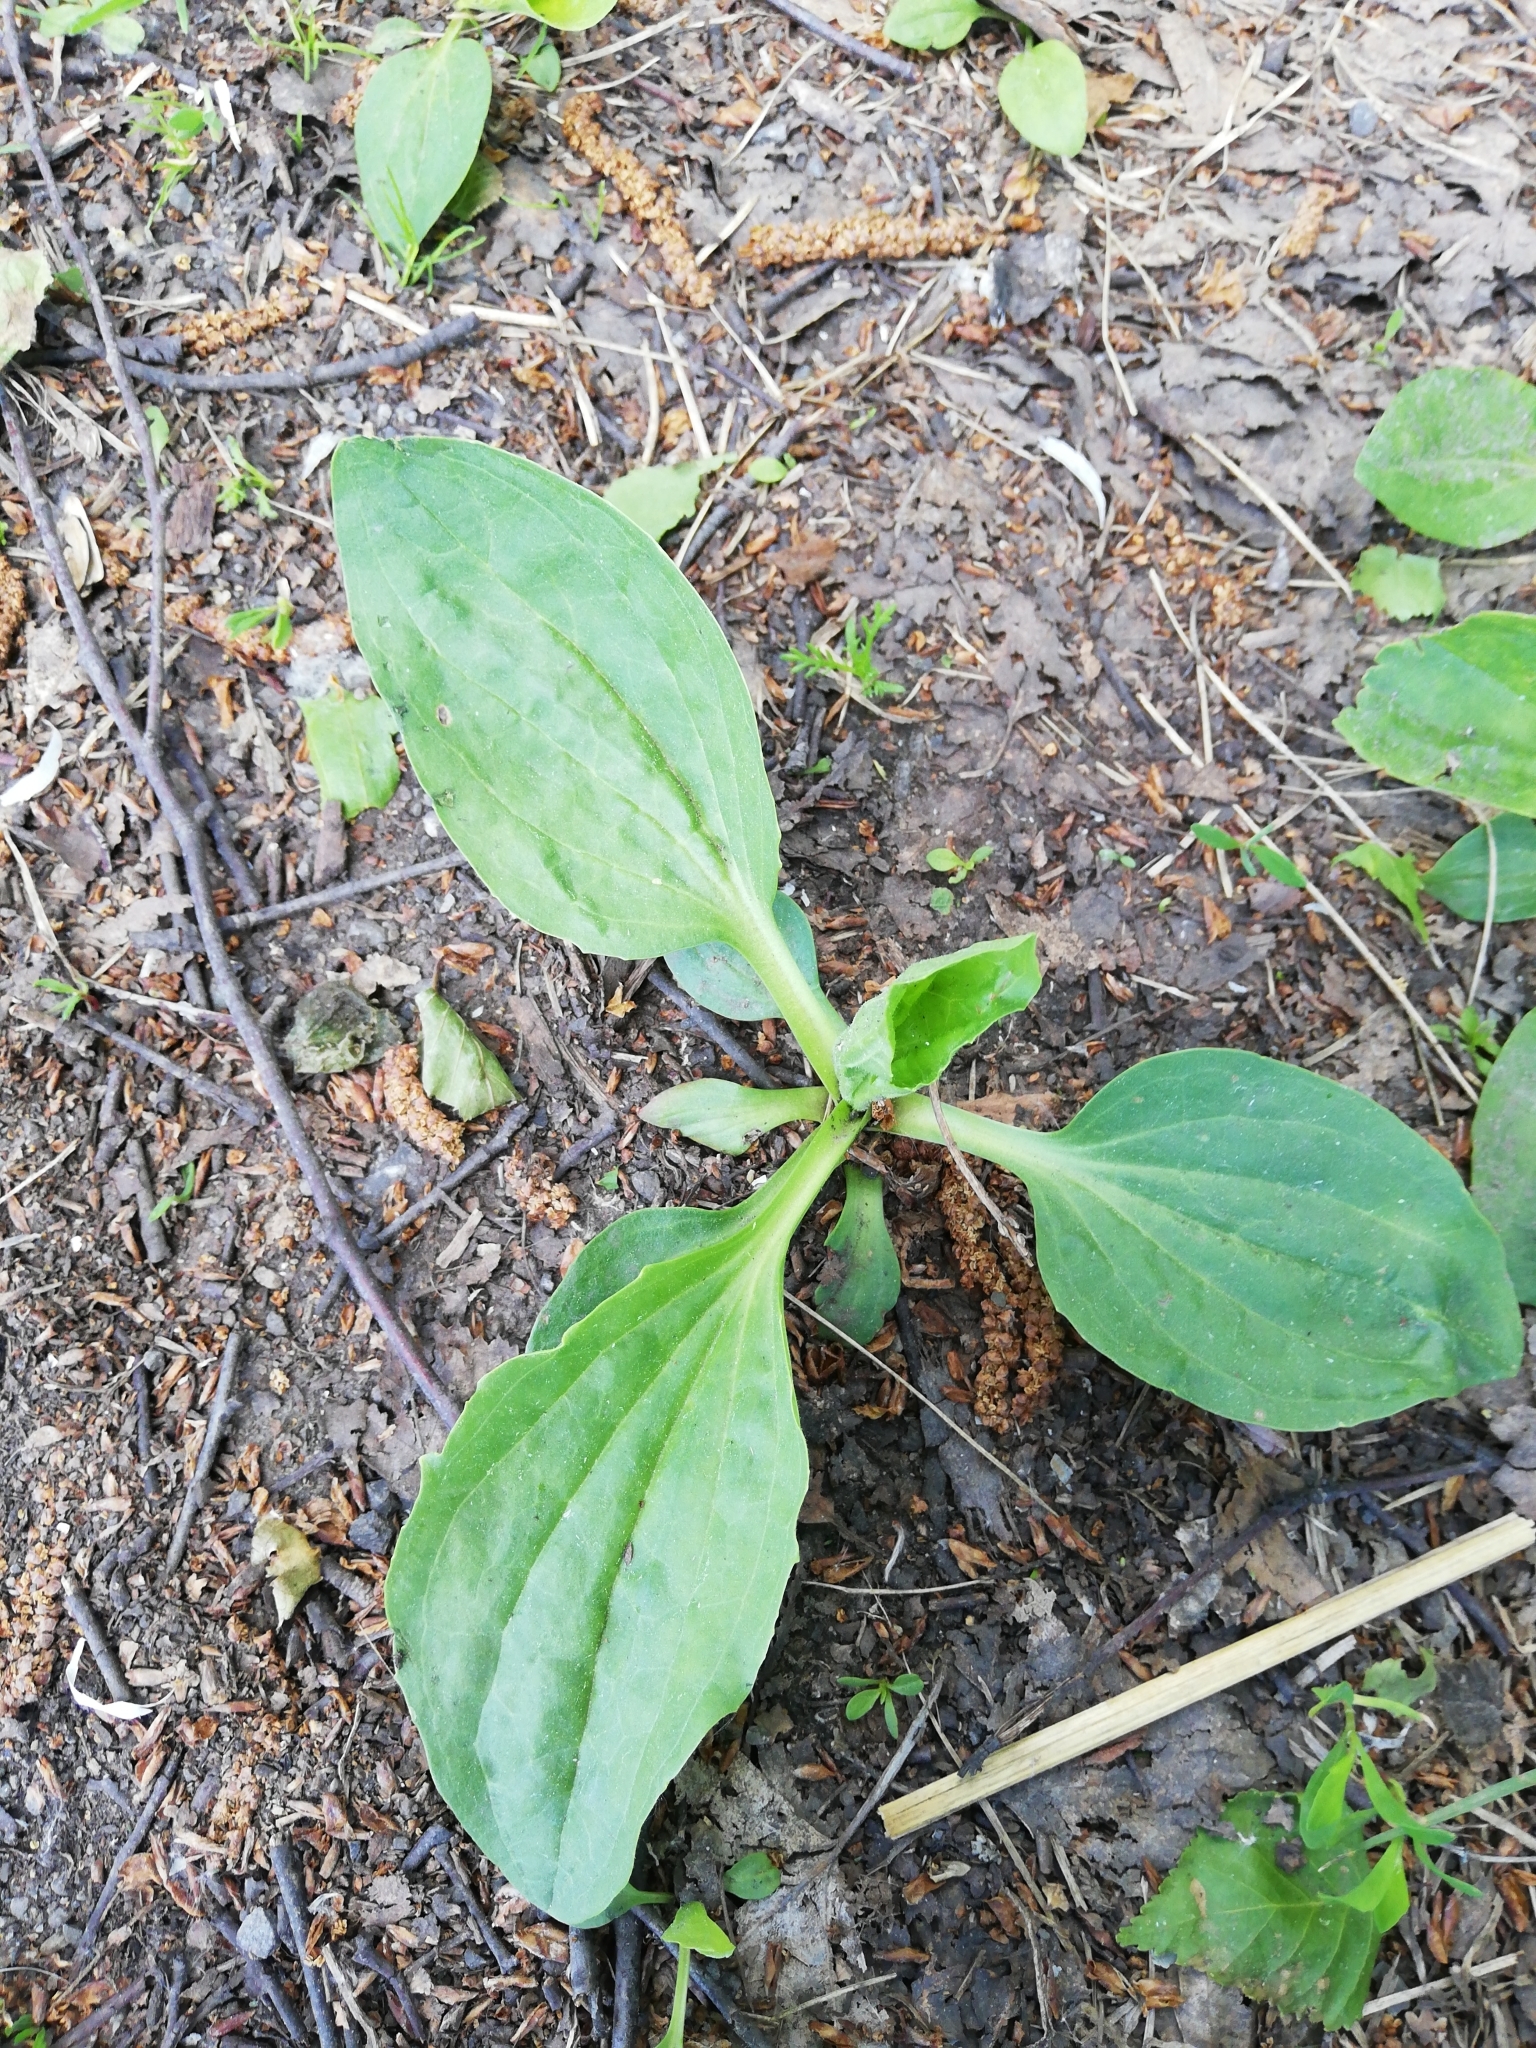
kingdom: Plantae
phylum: Tracheophyta
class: Magnoliopsida
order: Lamiales
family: Plantaginaceae
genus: Plantago
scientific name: Plantago major
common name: Common plantain
